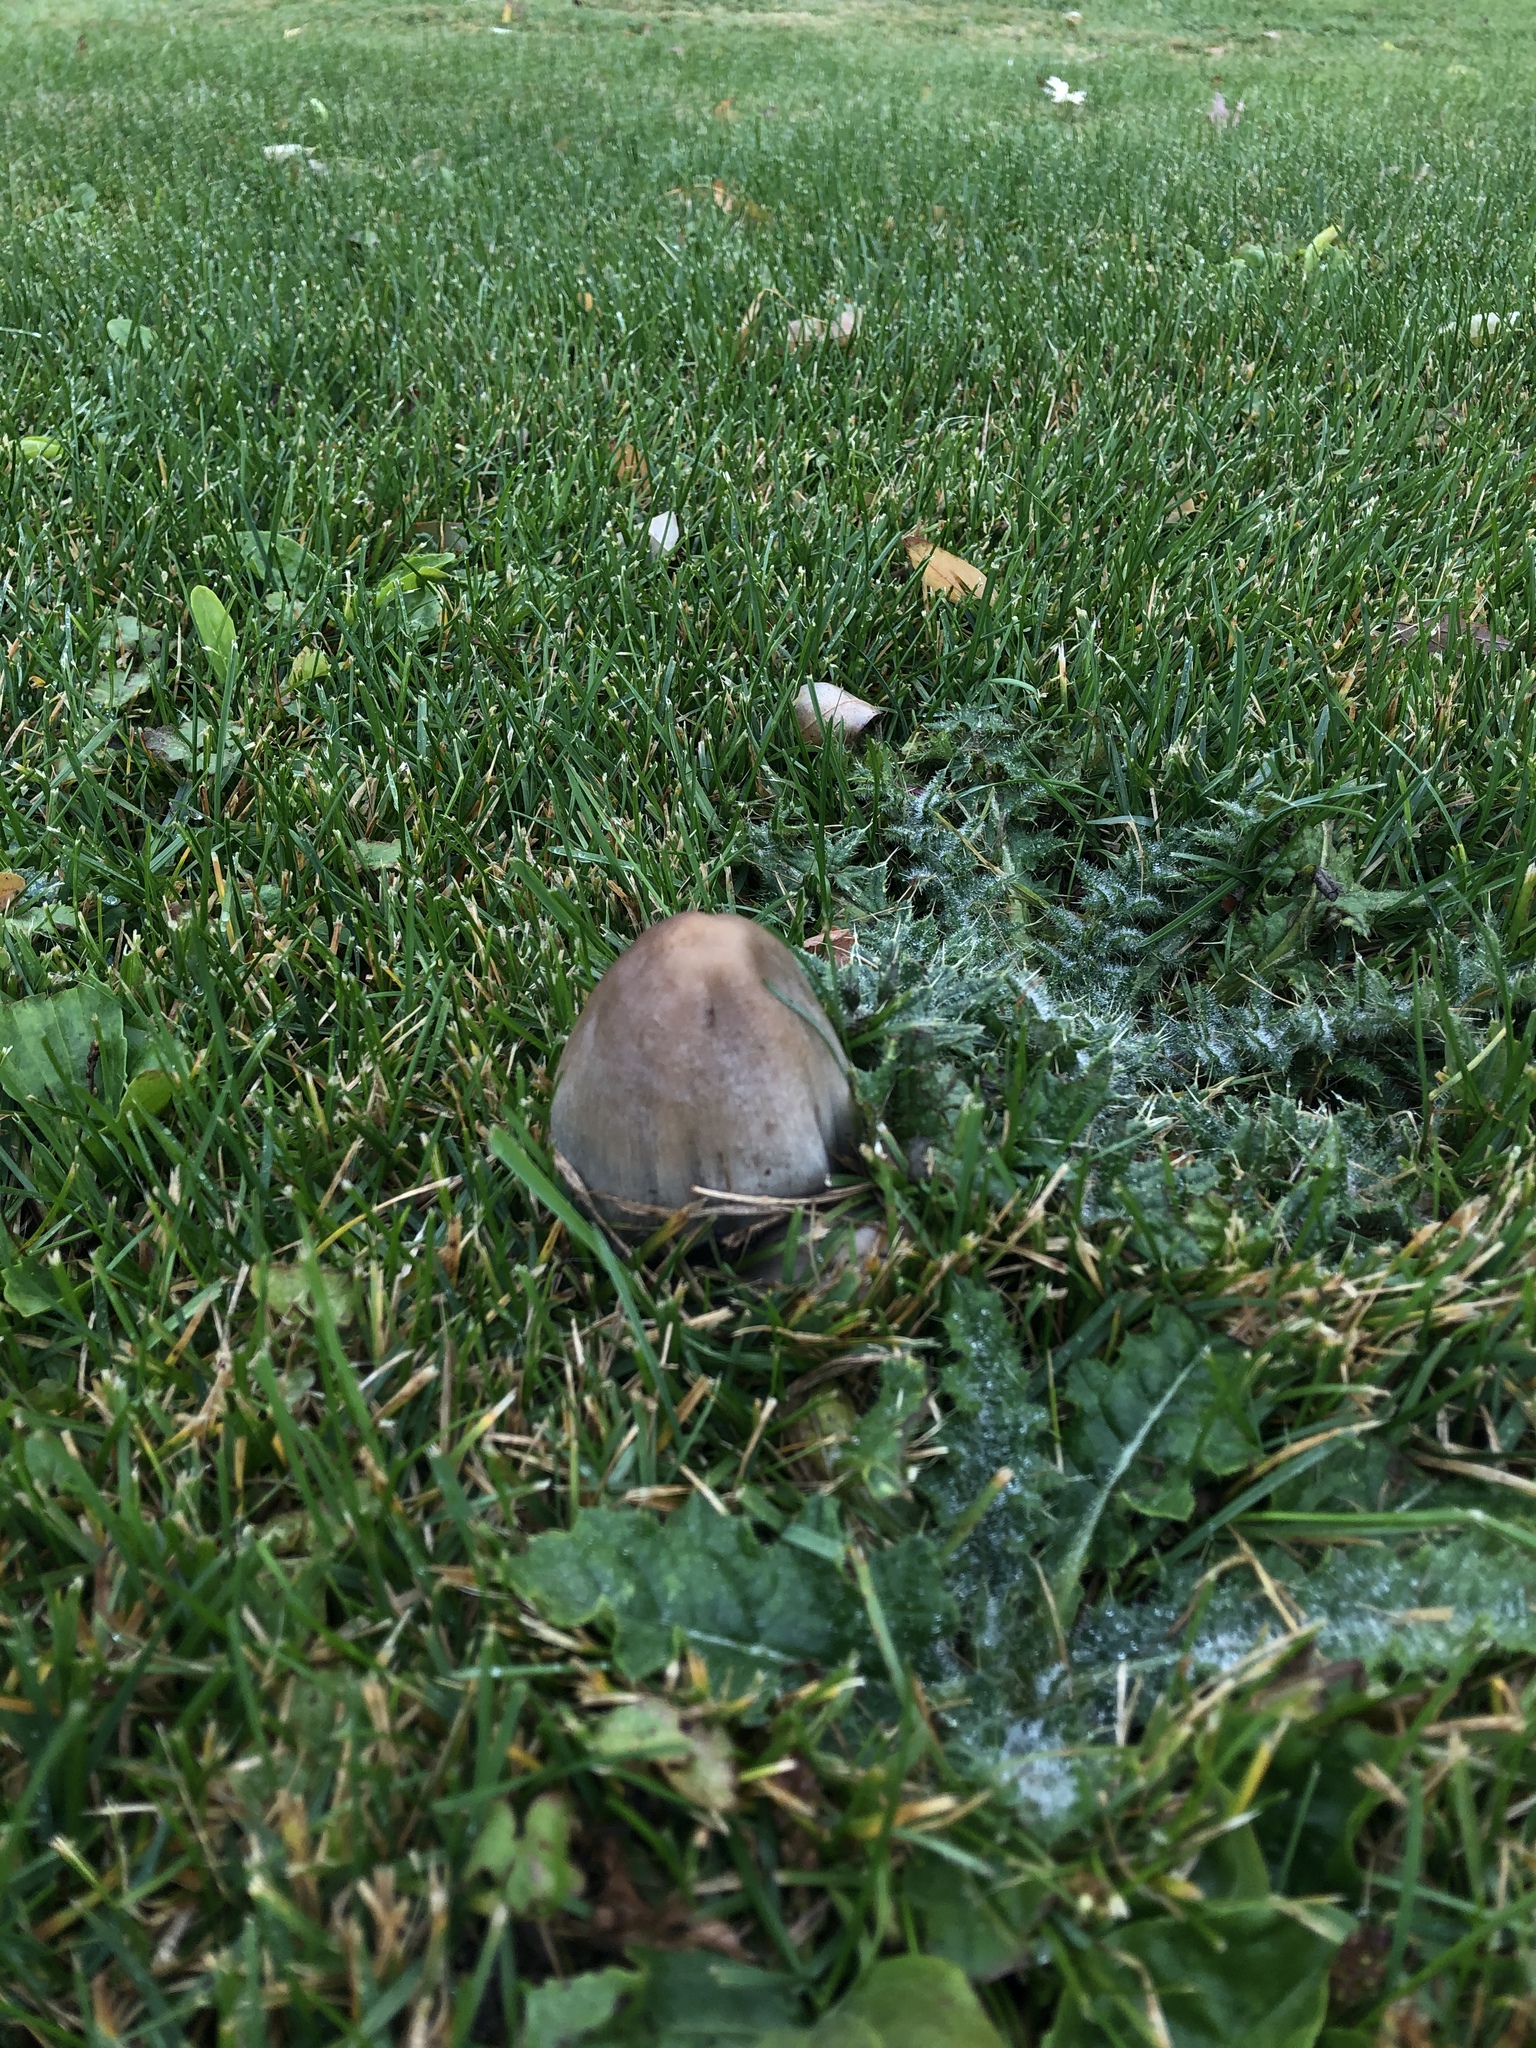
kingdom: Fungi
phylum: Basidiomycota
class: Agaricomycetes
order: Agaricales
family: Psathyrellaceae
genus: Coprinopsis
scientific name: Coprinopsis atramentaria
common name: Common ink-cap
